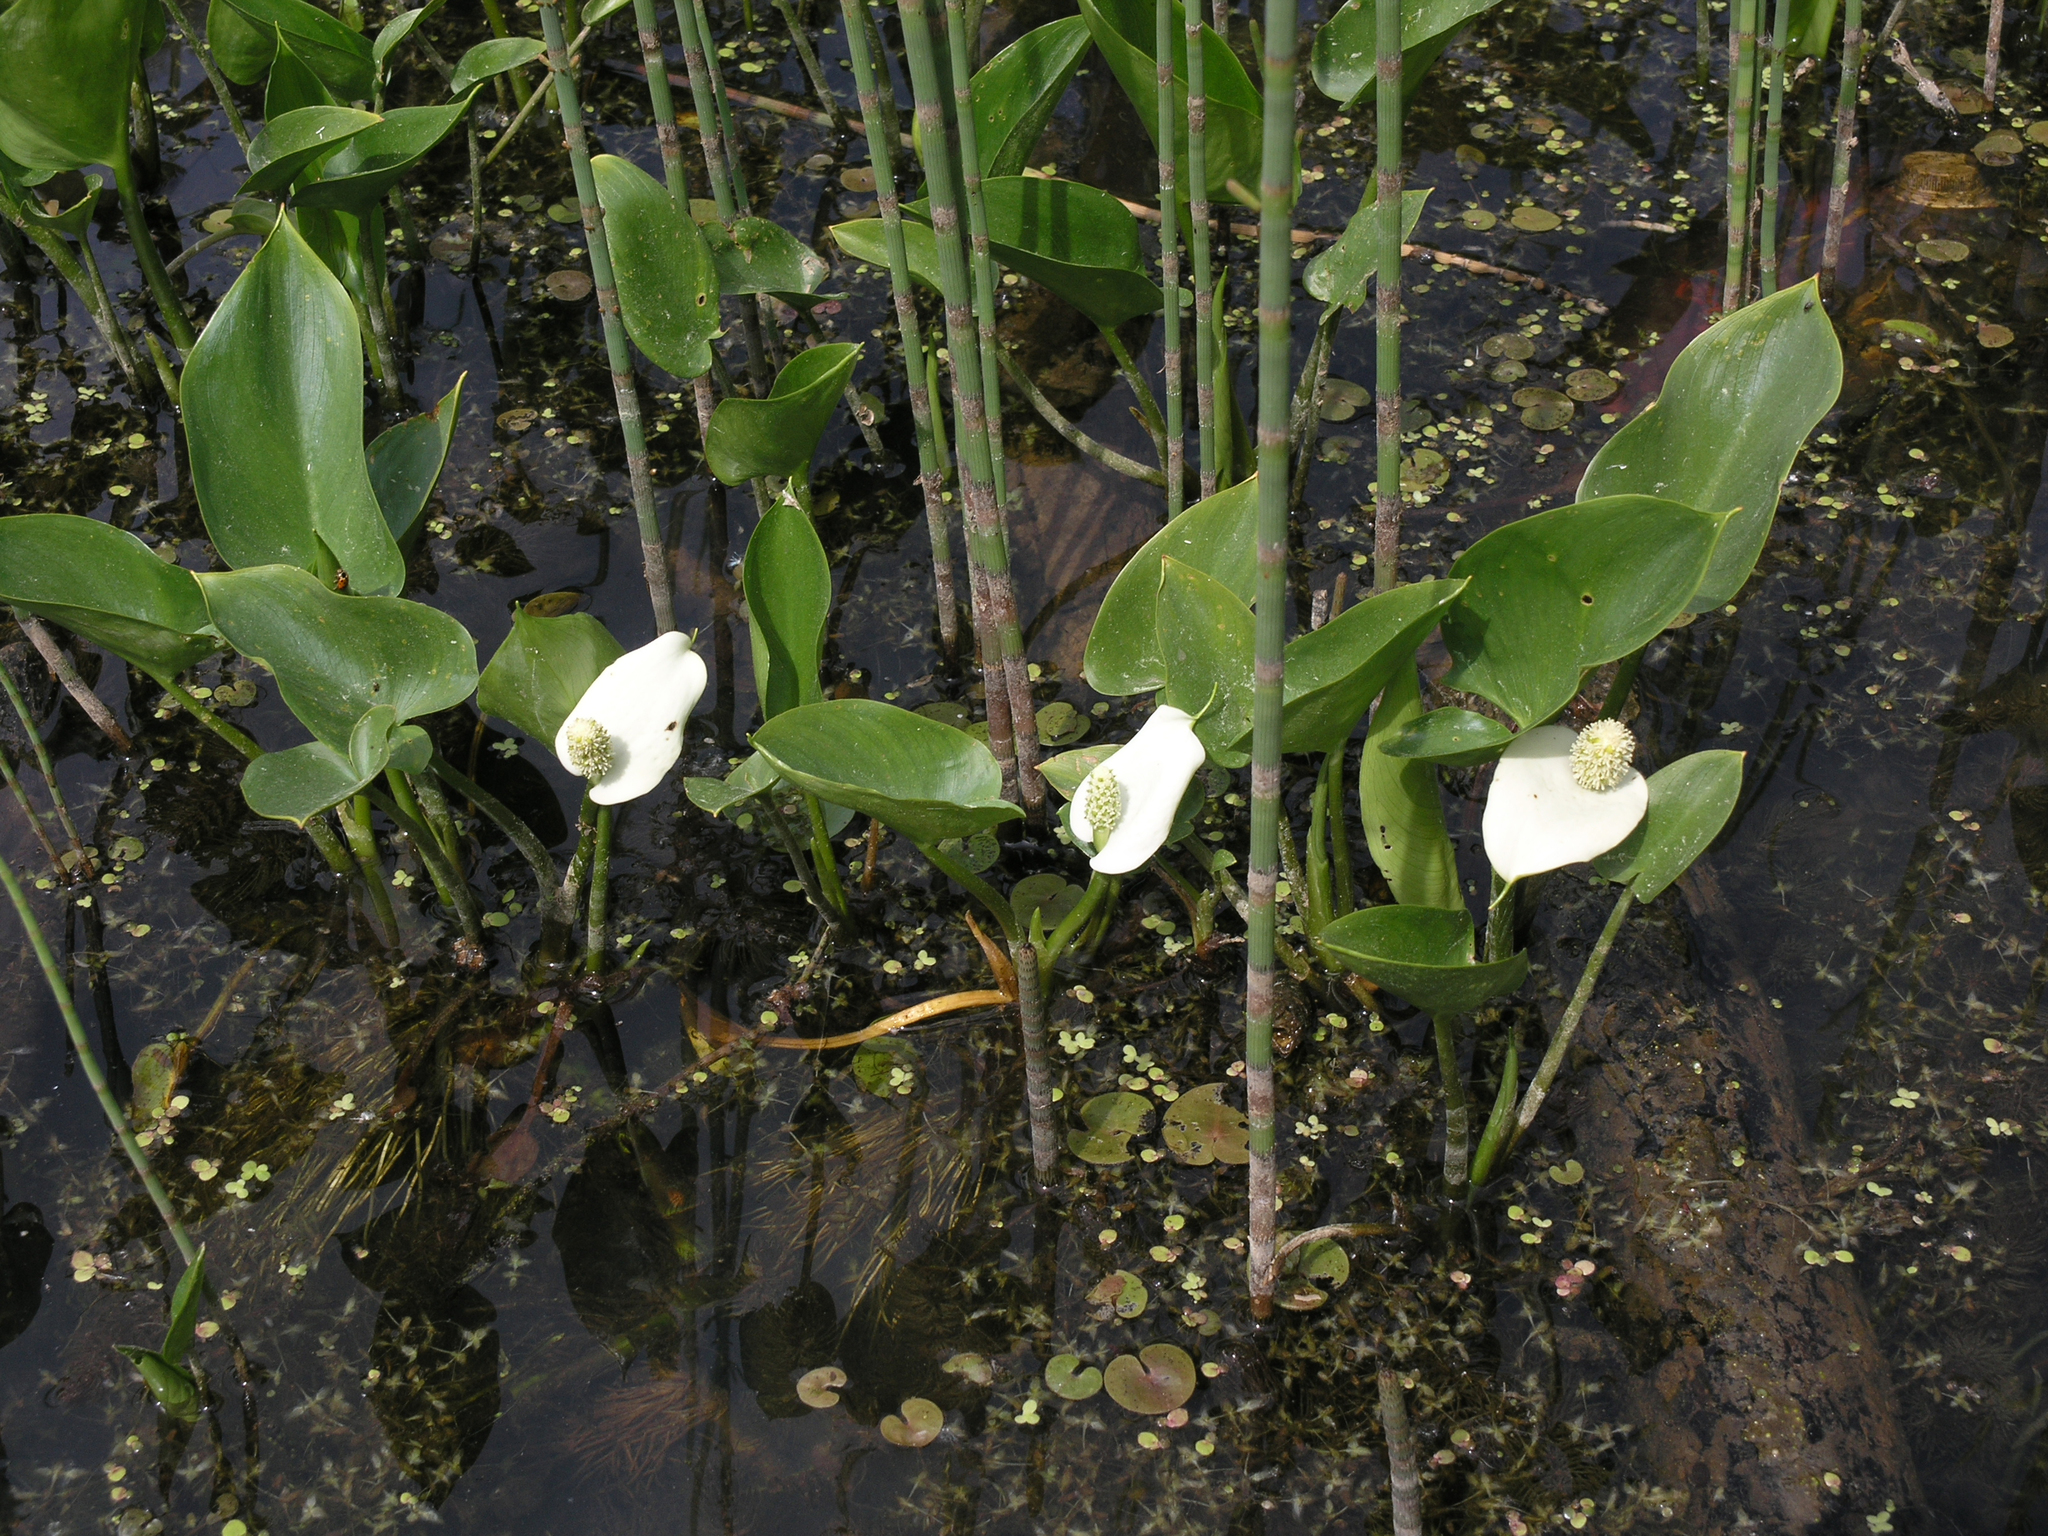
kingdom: Plantae
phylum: Tracheophyta
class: Liliopsida
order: Alismatales
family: Araceae
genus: Calla
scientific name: Calla palustris
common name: Bog arum
